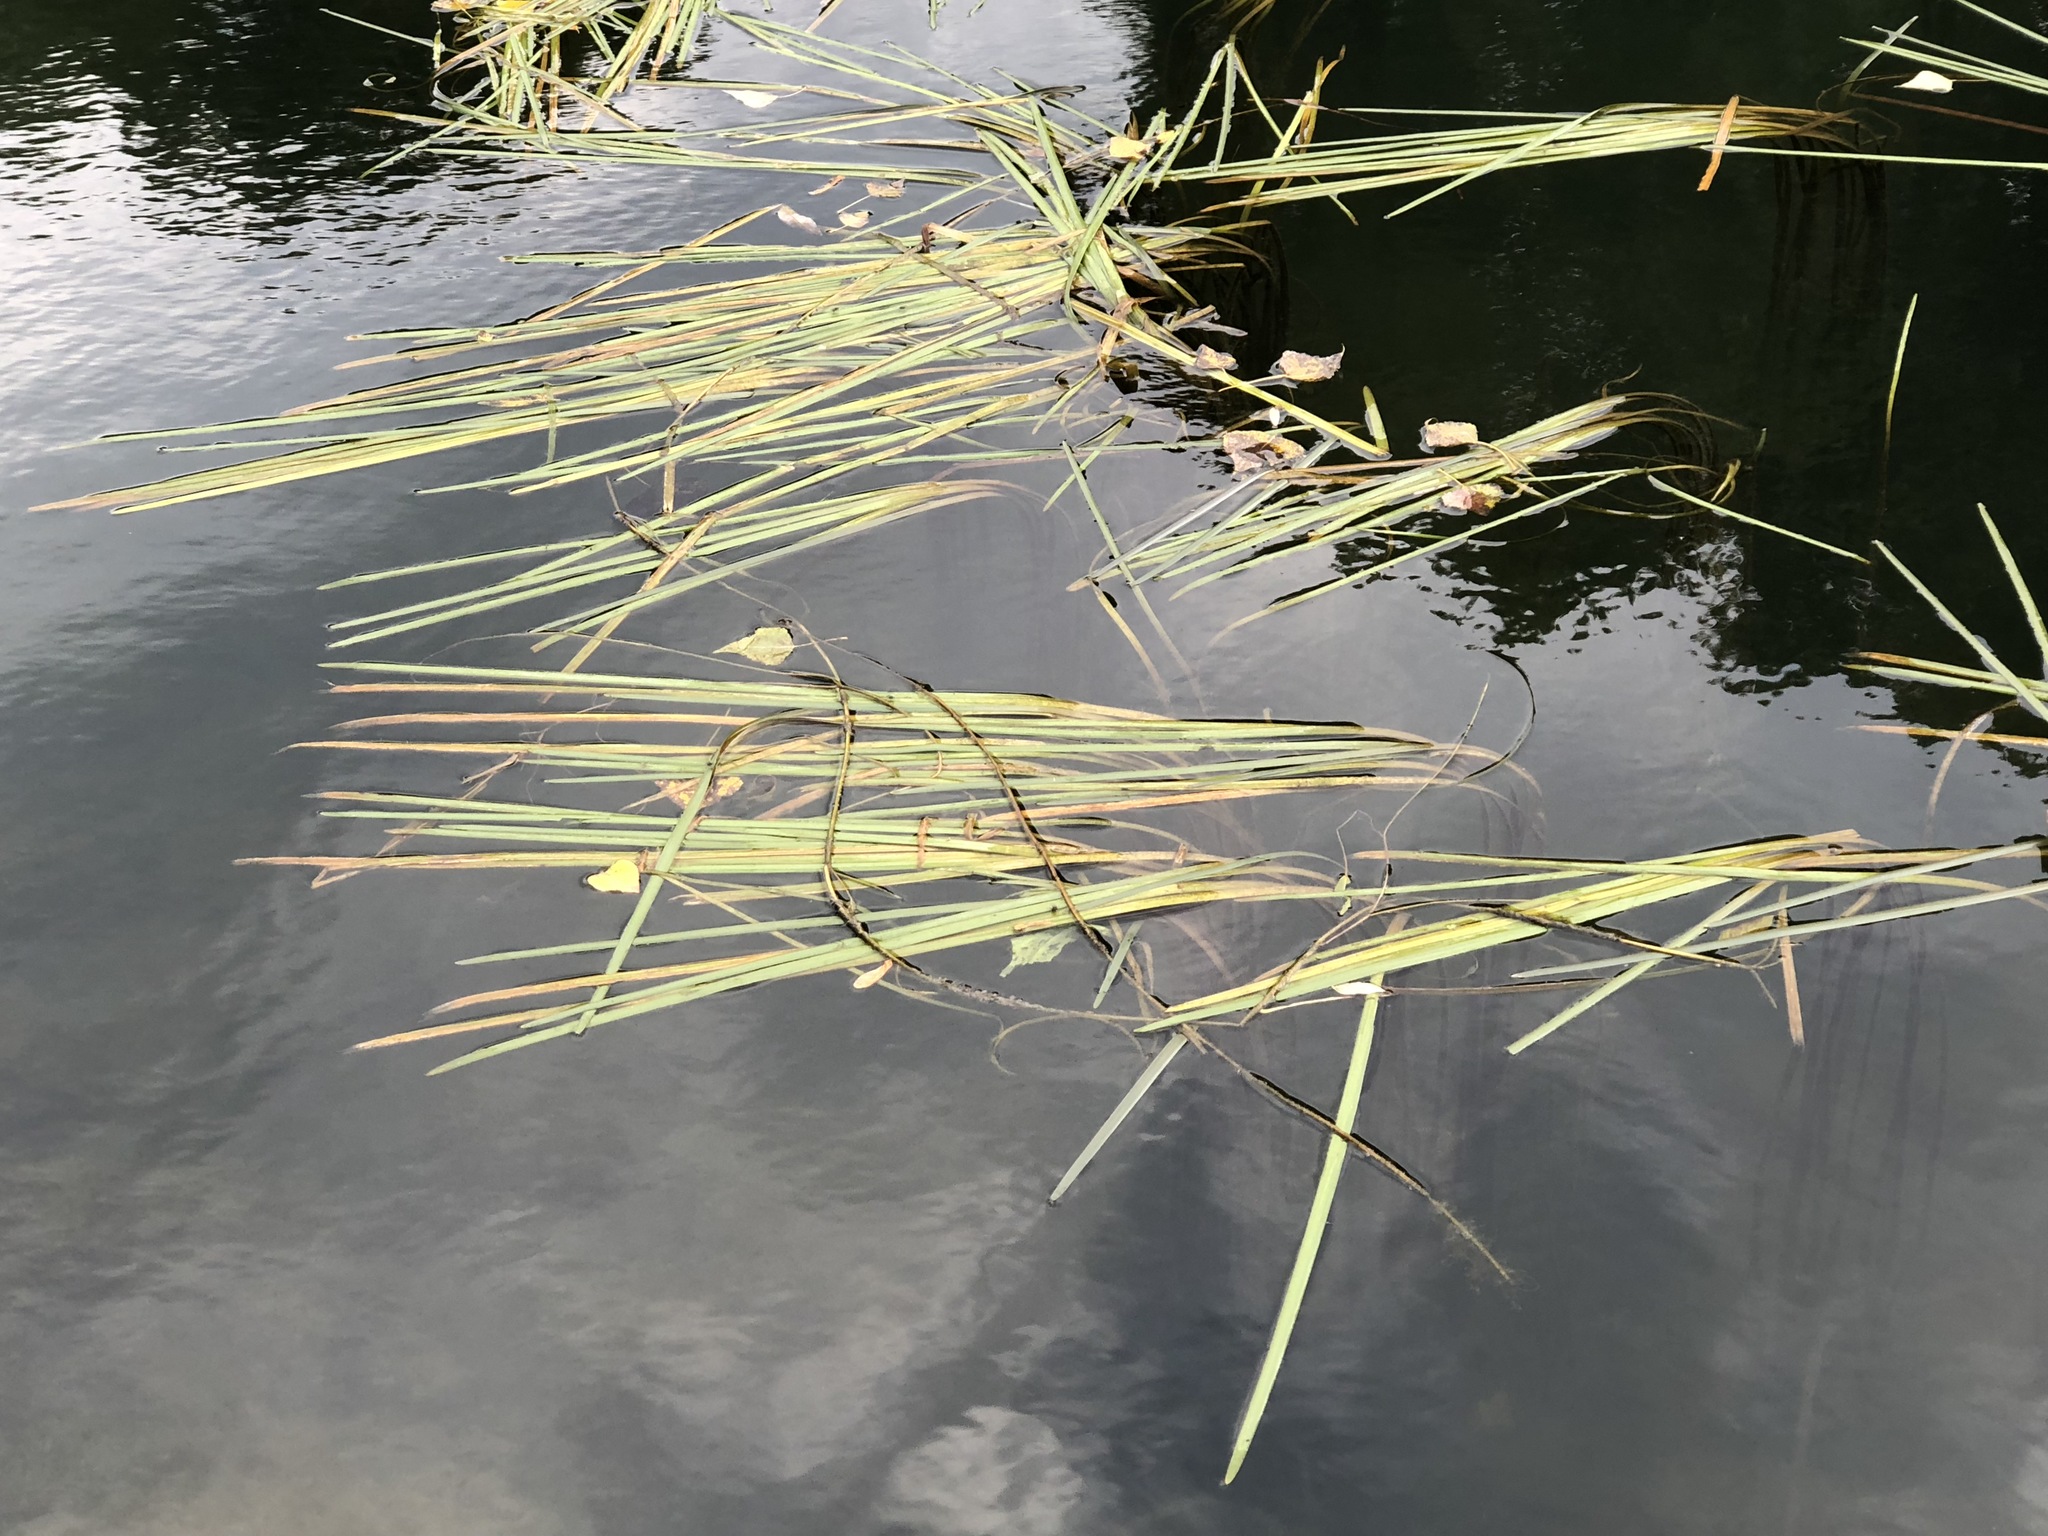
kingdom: Plantae
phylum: Tracheophyta
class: Liliopsida
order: Poales
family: Typhaceae
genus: Sparganium
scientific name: Sparganium emersum
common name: Unbranched bur-reed
